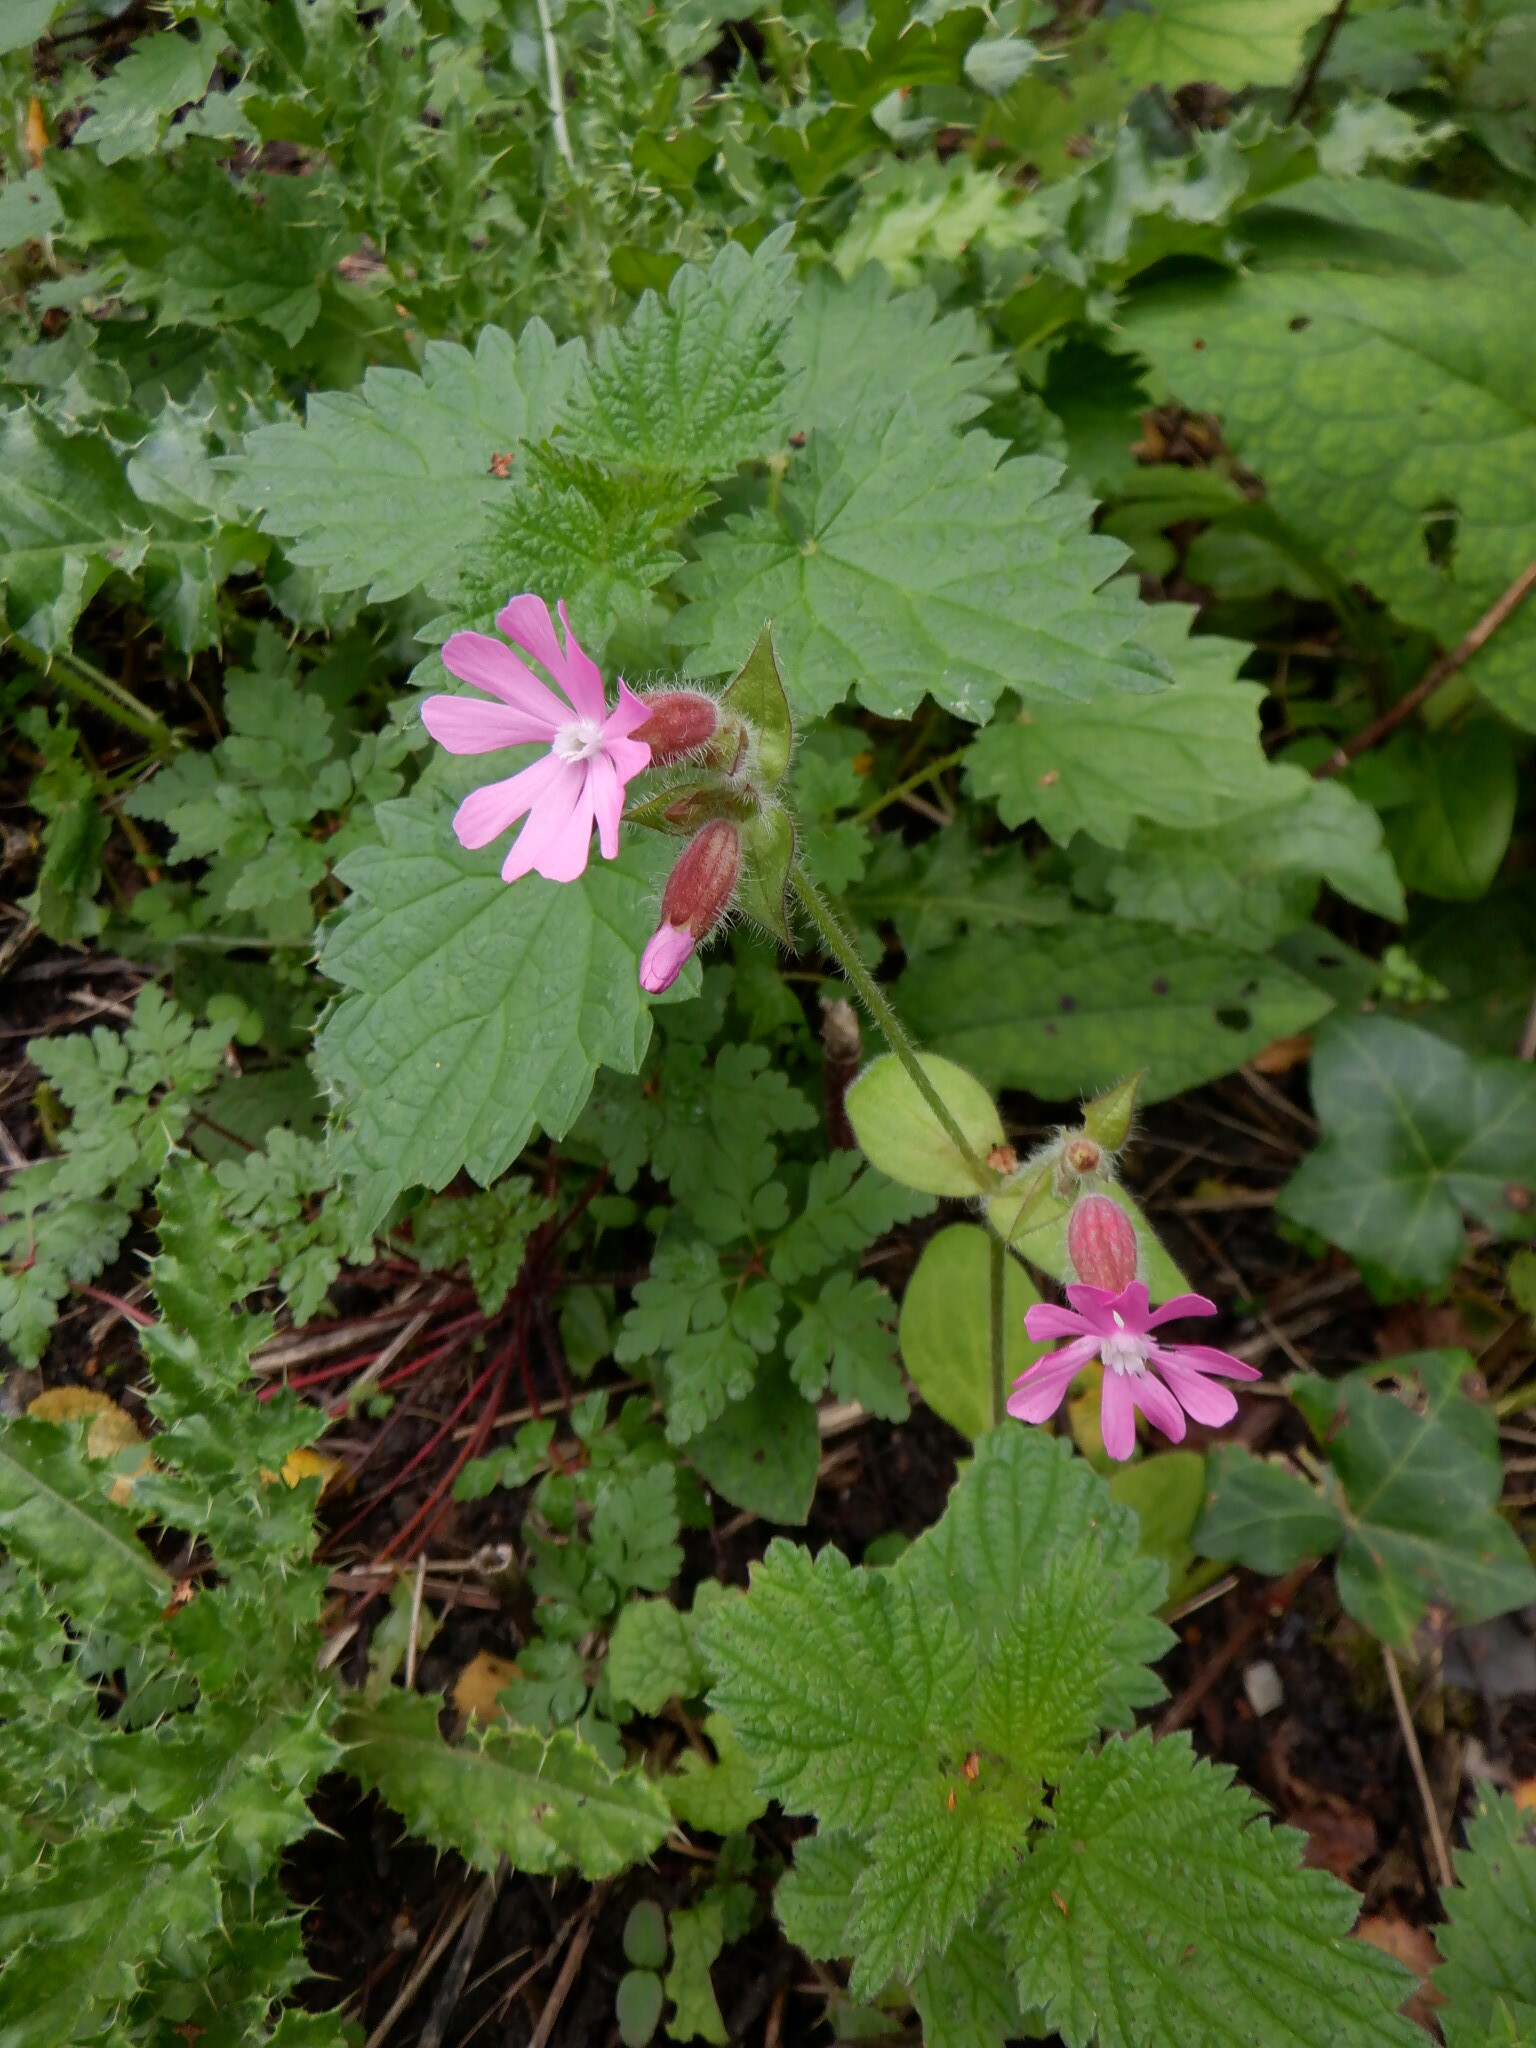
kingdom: Plantae
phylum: Tracheophyta
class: Magnoliopsida
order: Caryophyllales
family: Caryophyllaceae
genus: Silene
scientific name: Silene dioica
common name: Red campion
